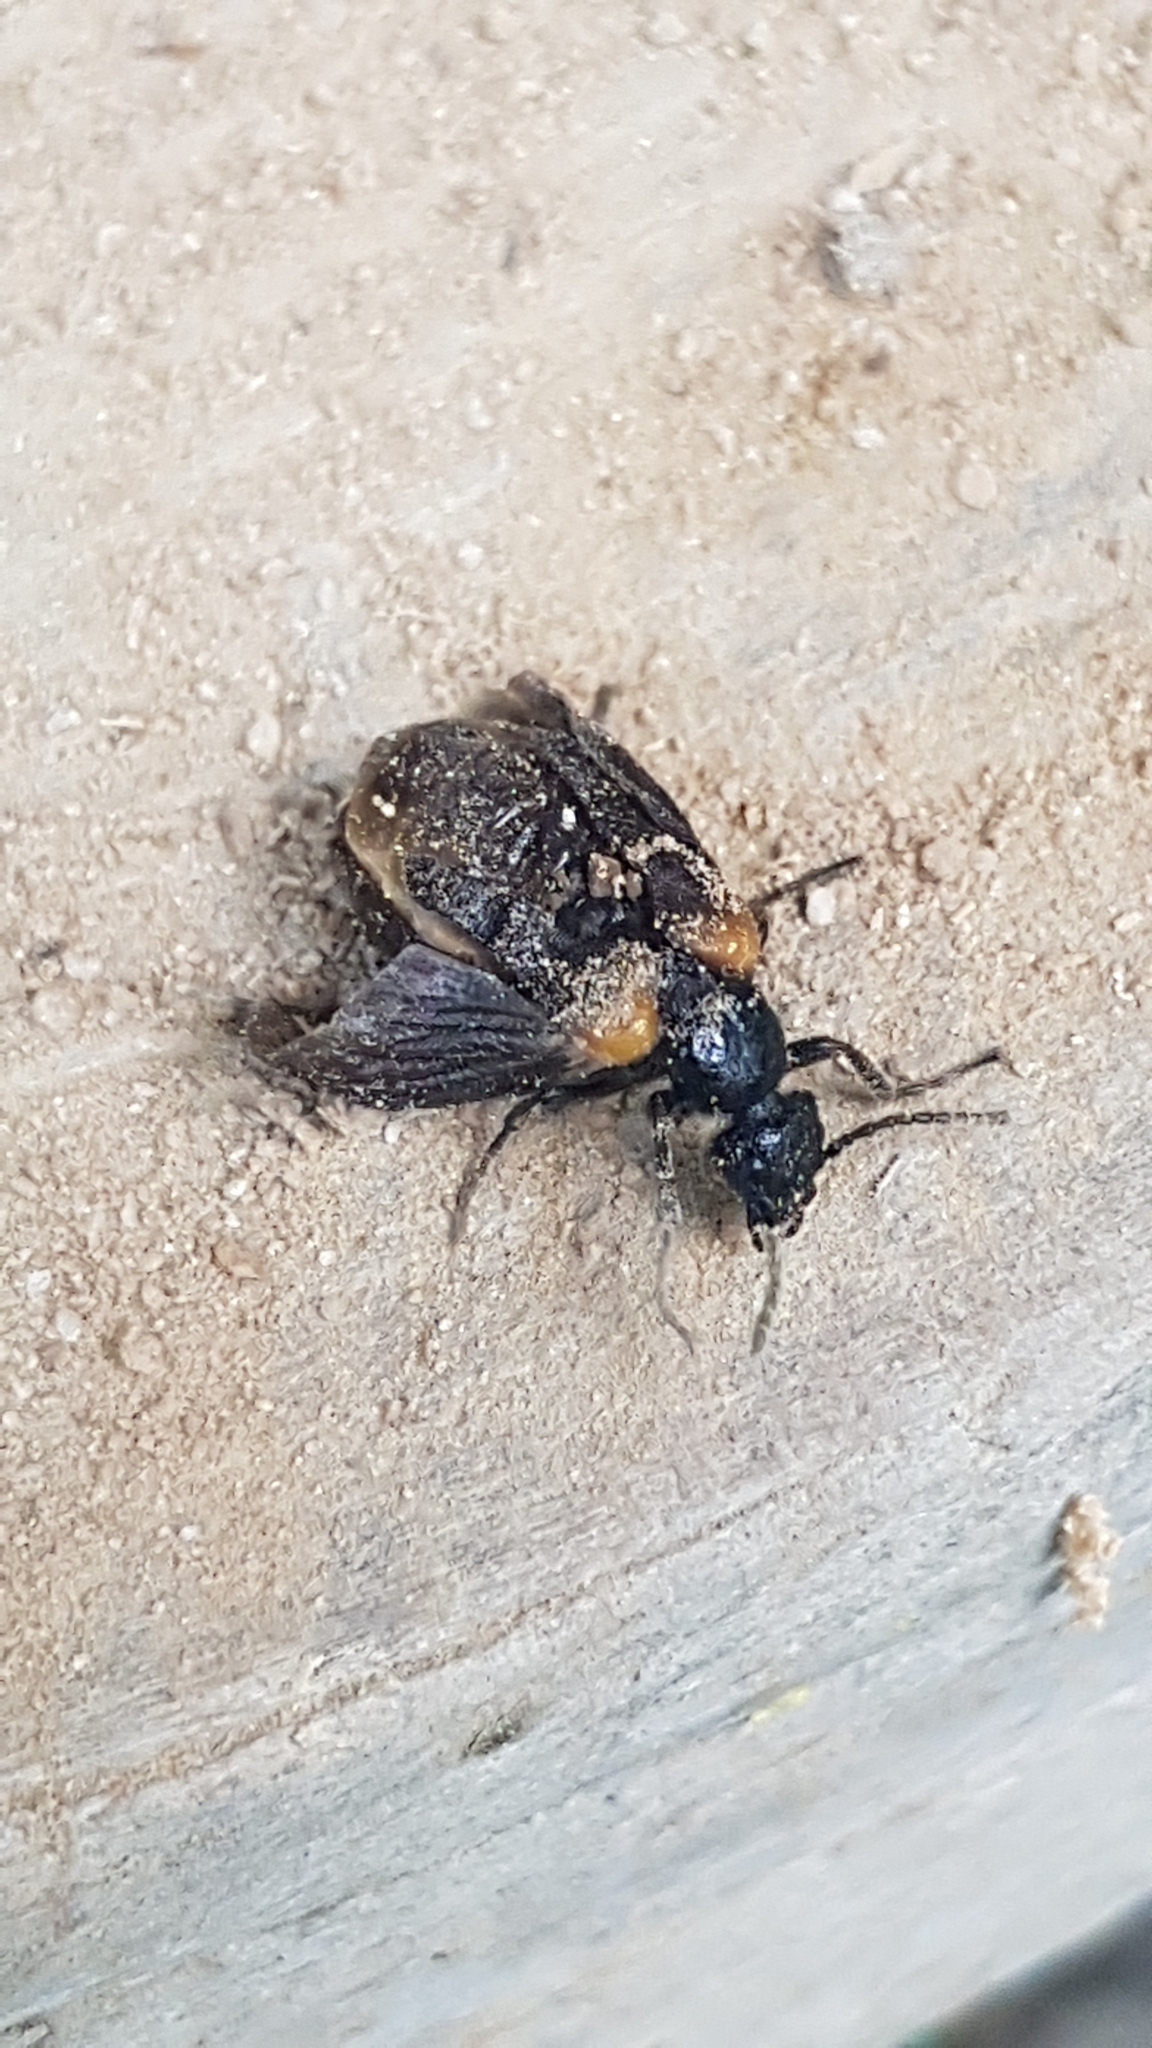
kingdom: Animalia
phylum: Arthropoda
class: Insecta
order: Coleoptera
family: Meloidae
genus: Sitaris
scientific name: Sitaris muralis
